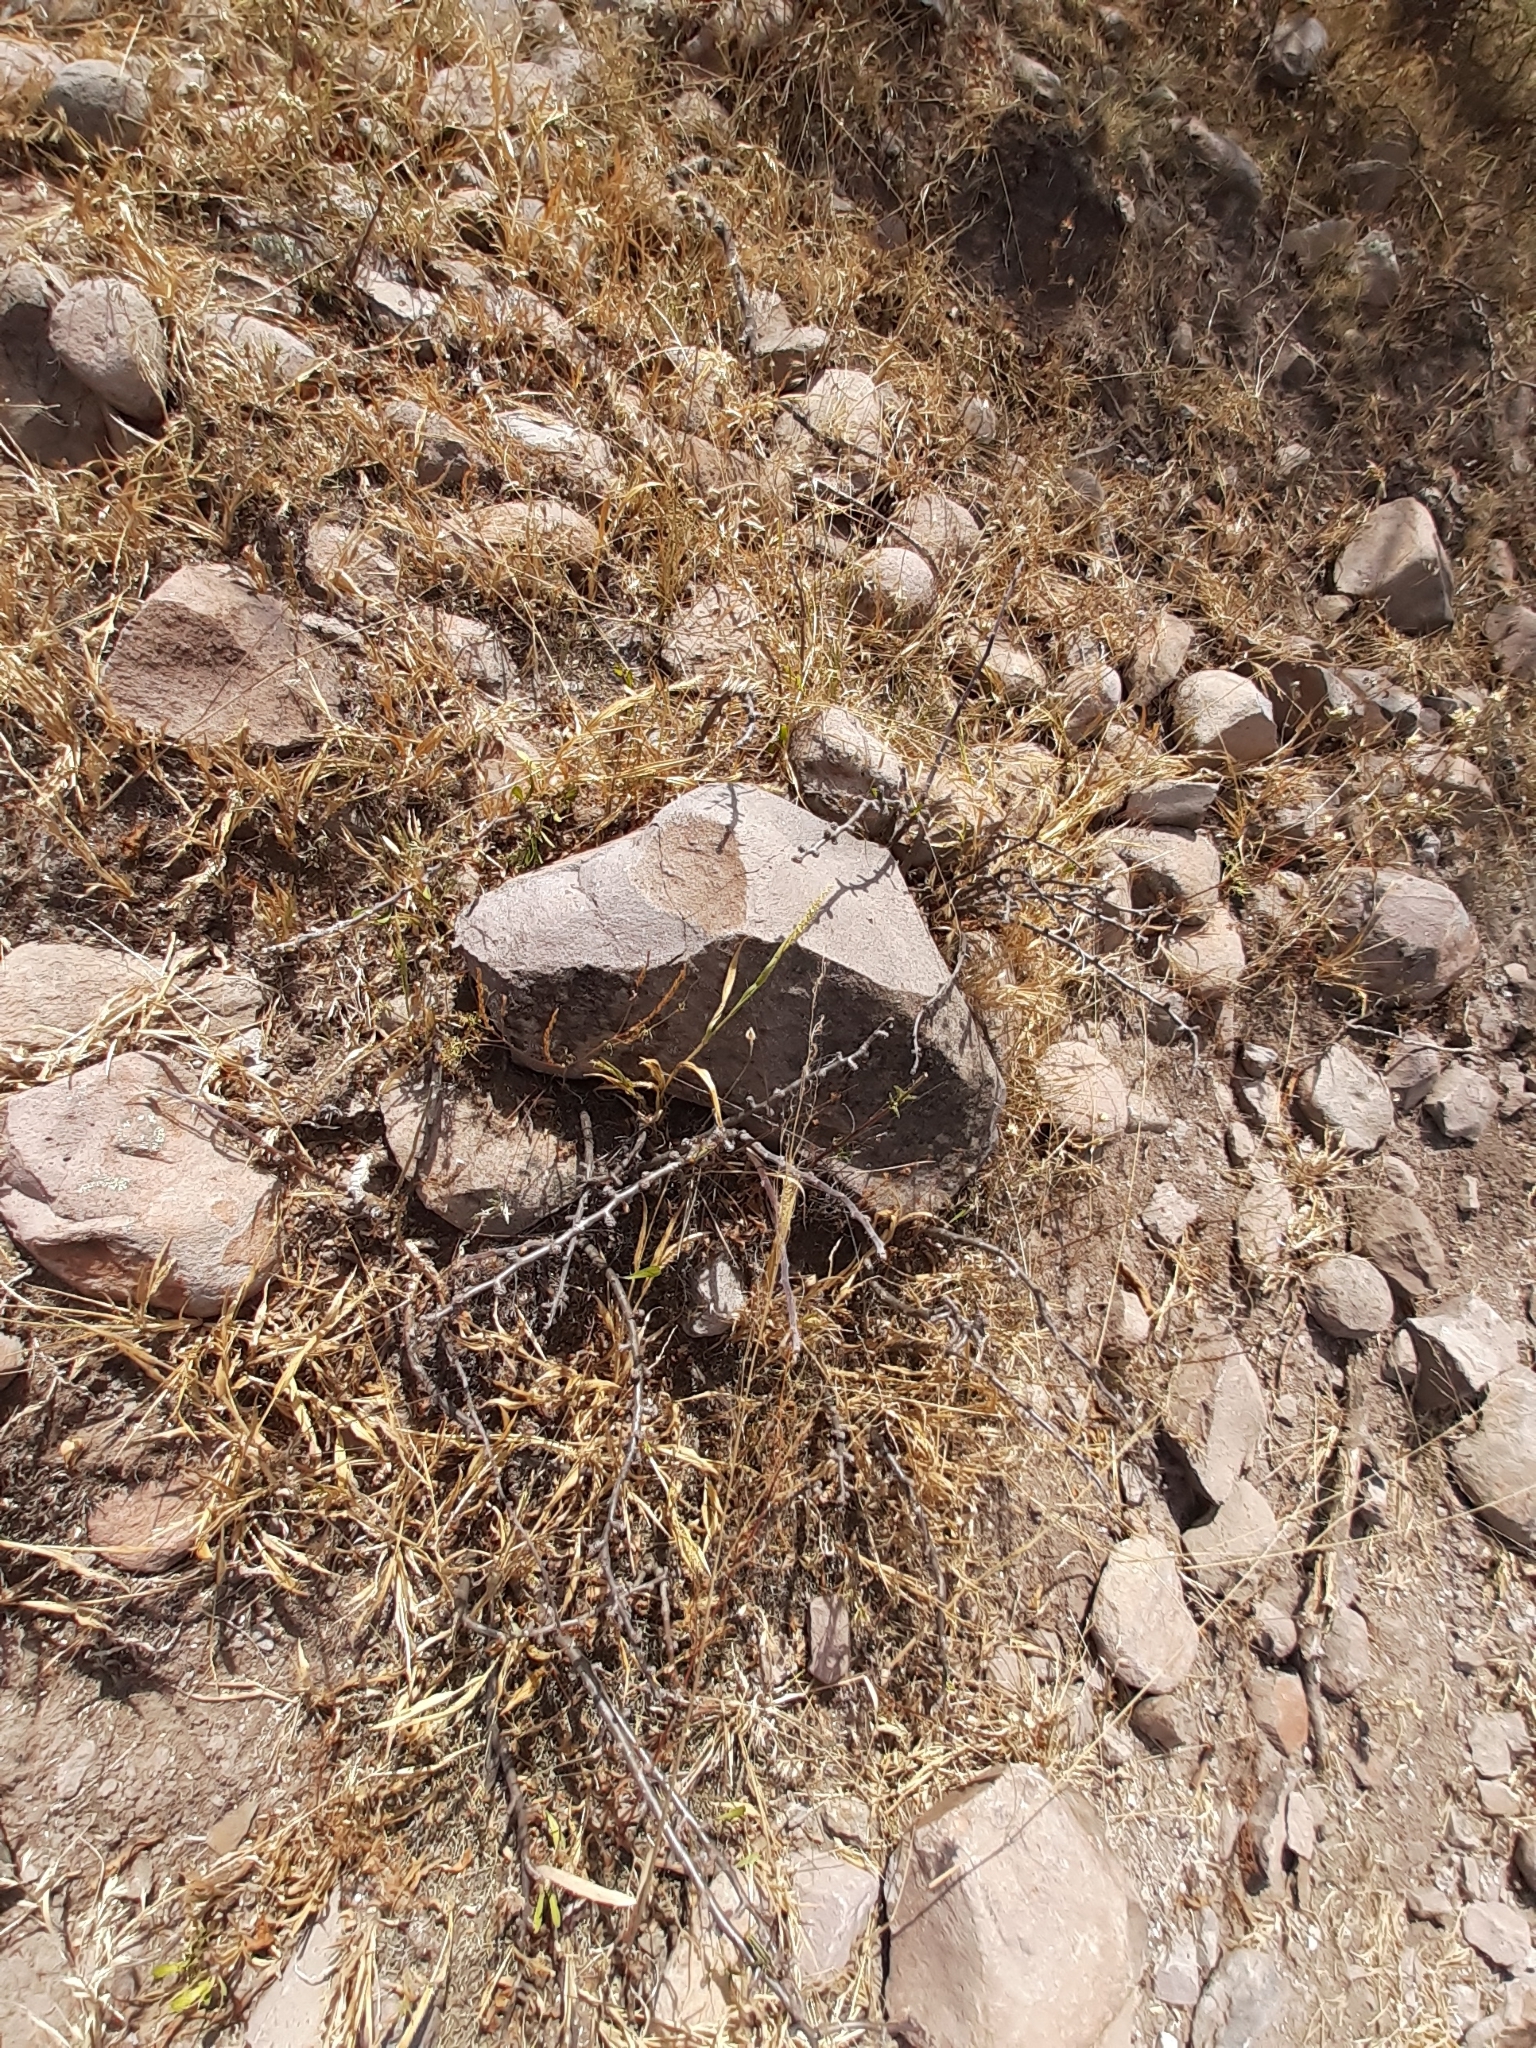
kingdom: Plantae
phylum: Tracheophyta
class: Magnoliopsida
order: Malpighiales
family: Euphorbiaceae
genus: Jatropha
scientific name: Jatropha dioica
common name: Leatherstem
